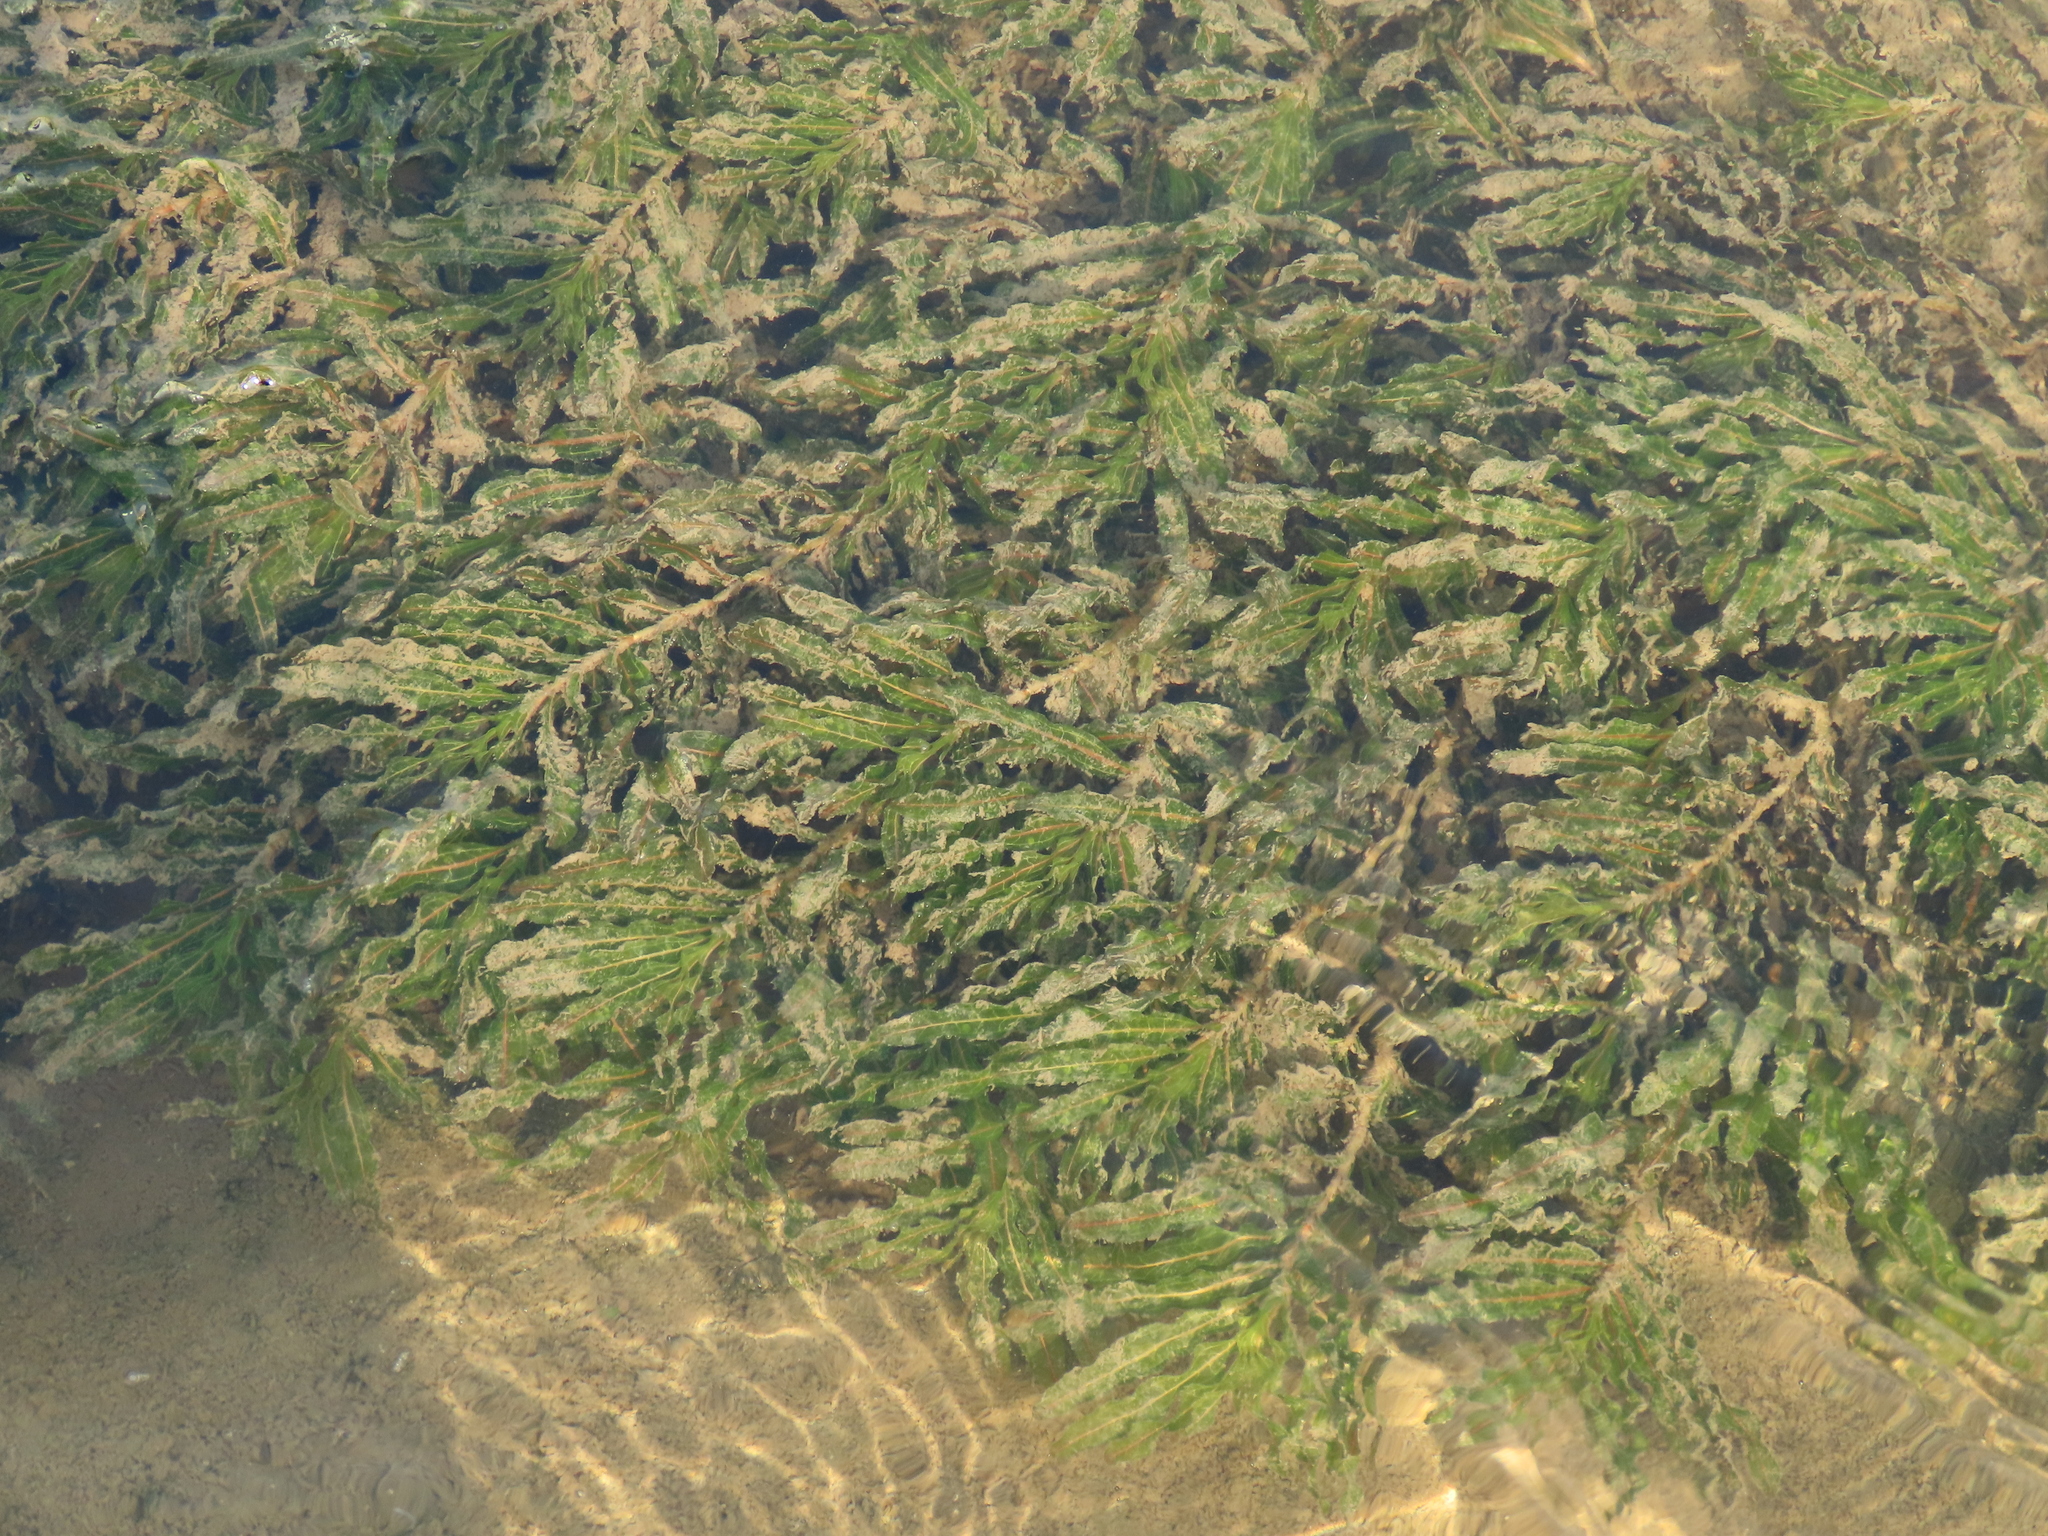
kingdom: Plantae
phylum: Tracheophyta
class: Liliopsida
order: Alismatales
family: Potamogetonaceae
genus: Potamogeton
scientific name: Potamogeton crispus
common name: Curled pondweed
